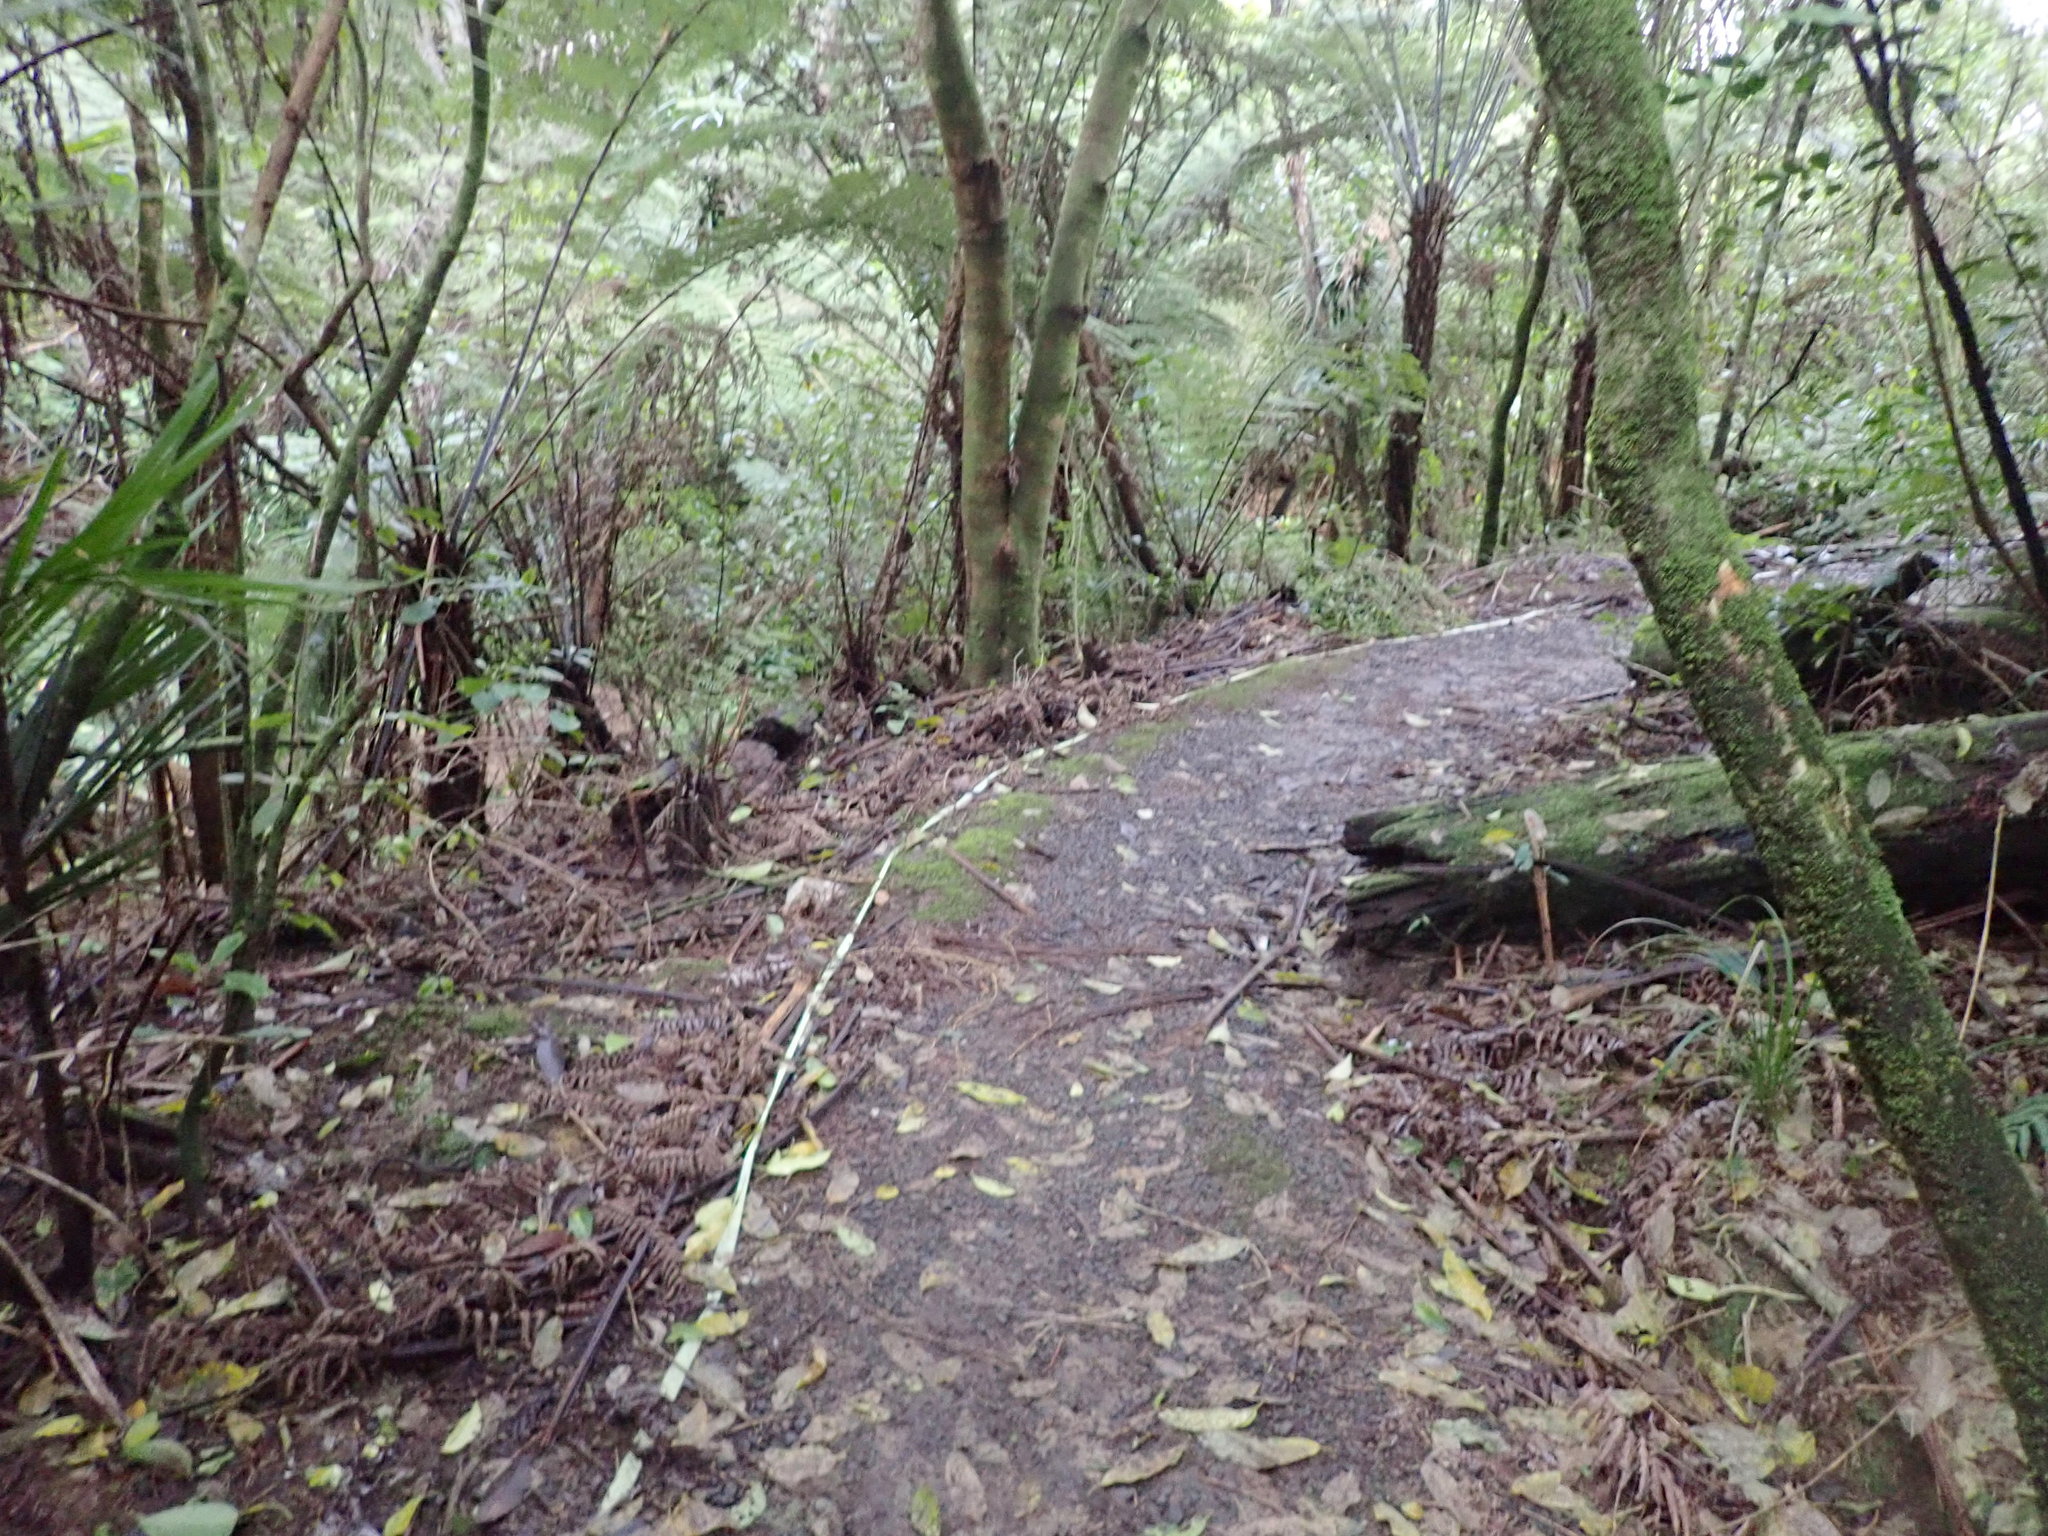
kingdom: Plantae
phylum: Tracheophyta
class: Liliopsida
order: Commelinales
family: Commelinaceae
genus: Tradescantia
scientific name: Tradescantia fluminensis
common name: Wandering-jew
